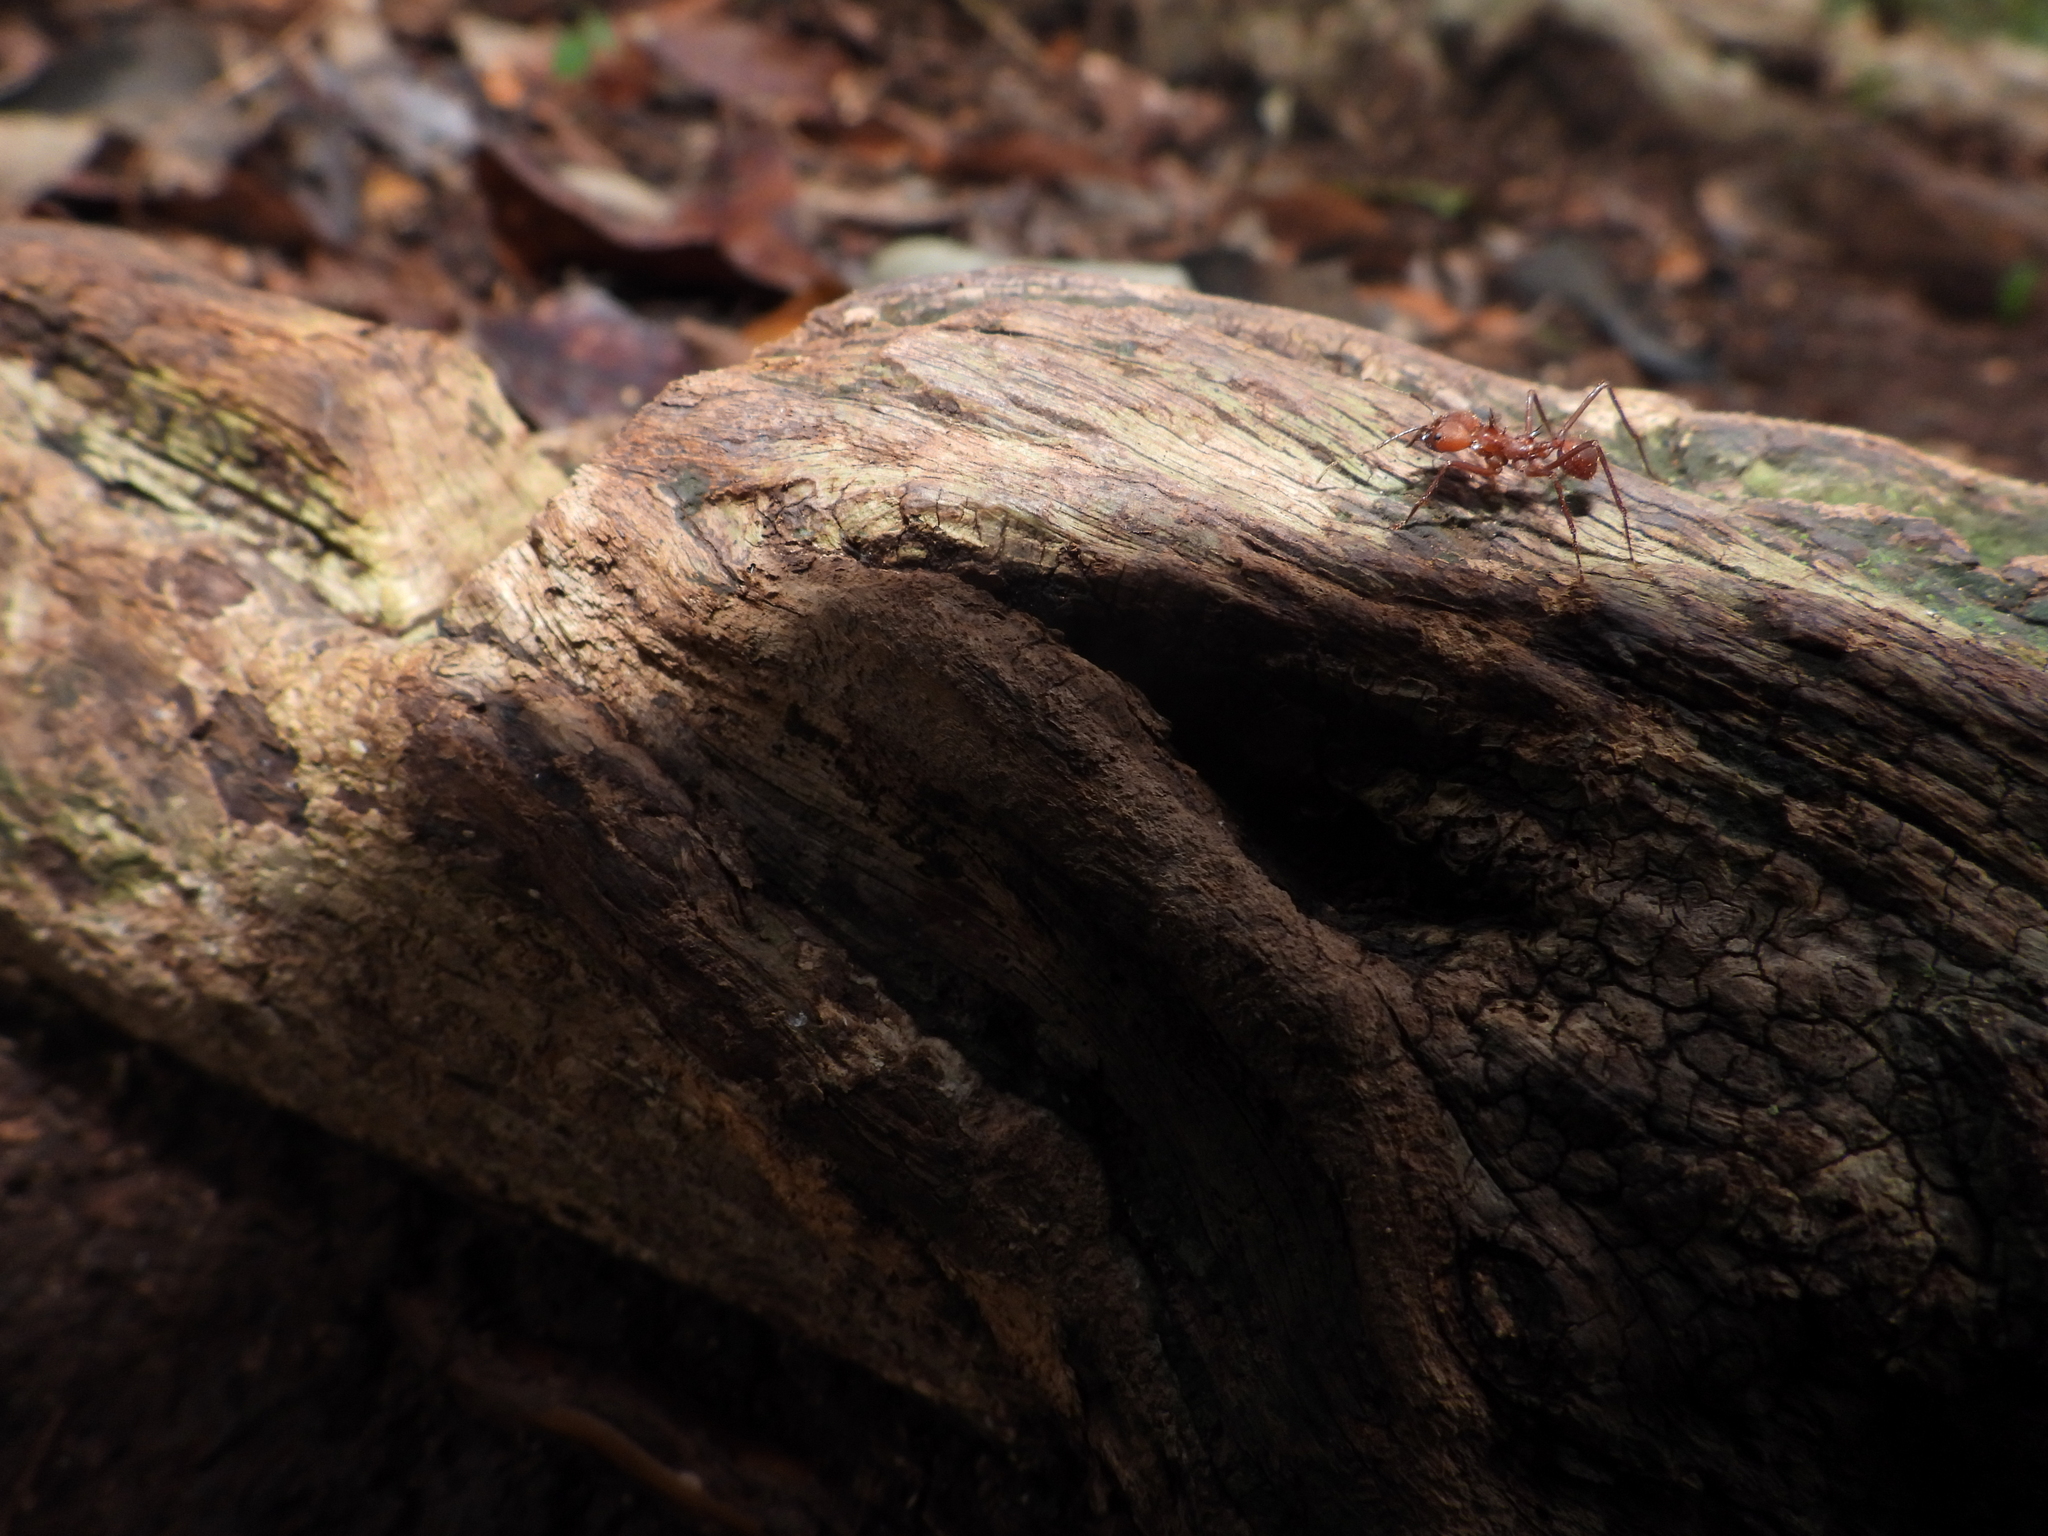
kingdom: Animalia
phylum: Arthropoda
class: Insecta
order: Hymenoptera
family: Formicidae
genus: Atta
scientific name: Atta cephalotes
